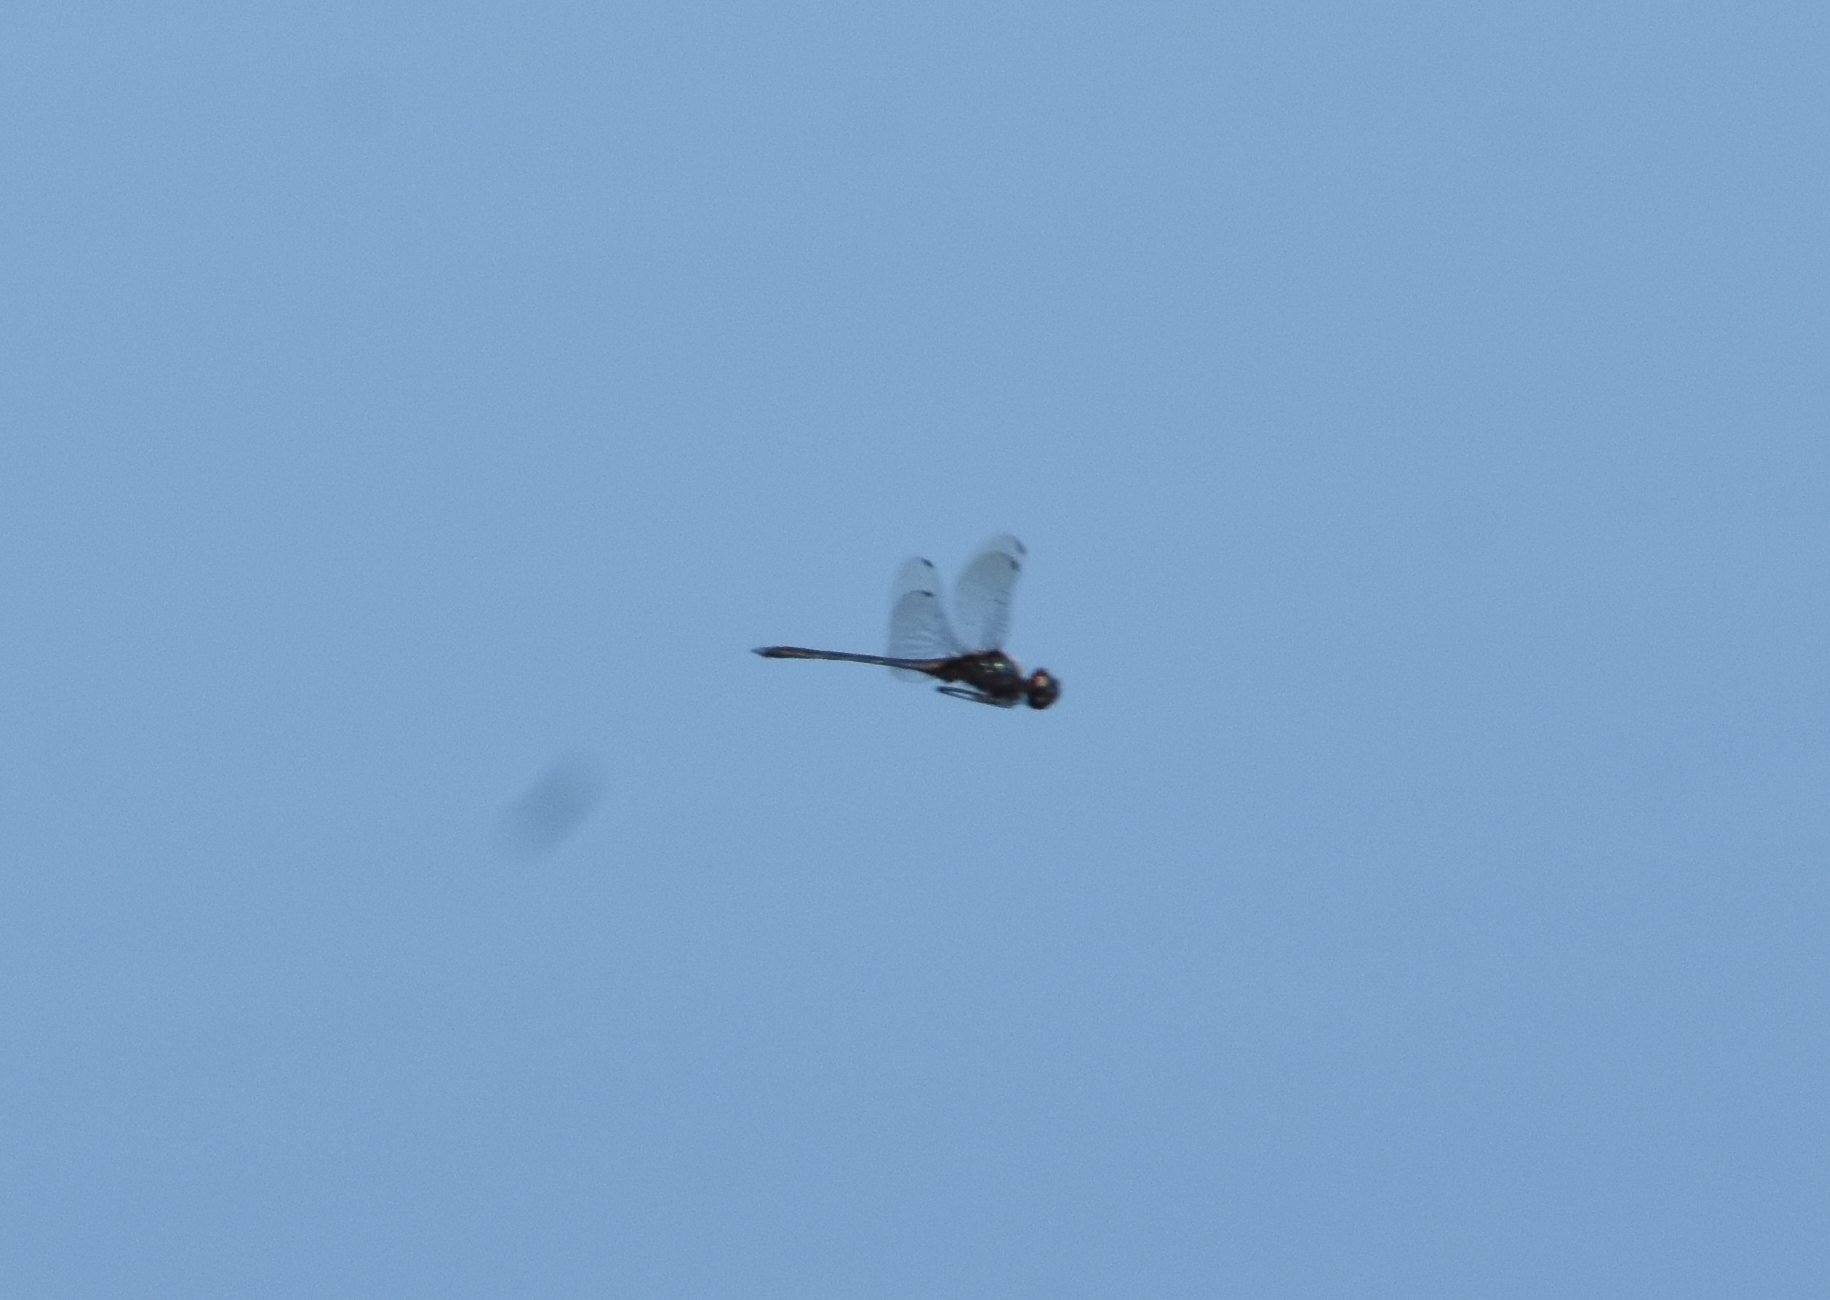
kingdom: Animalia
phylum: Arthropoda
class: Insecta
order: Odonata
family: Libellulidae
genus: Idiataphe
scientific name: Idiataphe cubensis
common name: Metallic pennant
